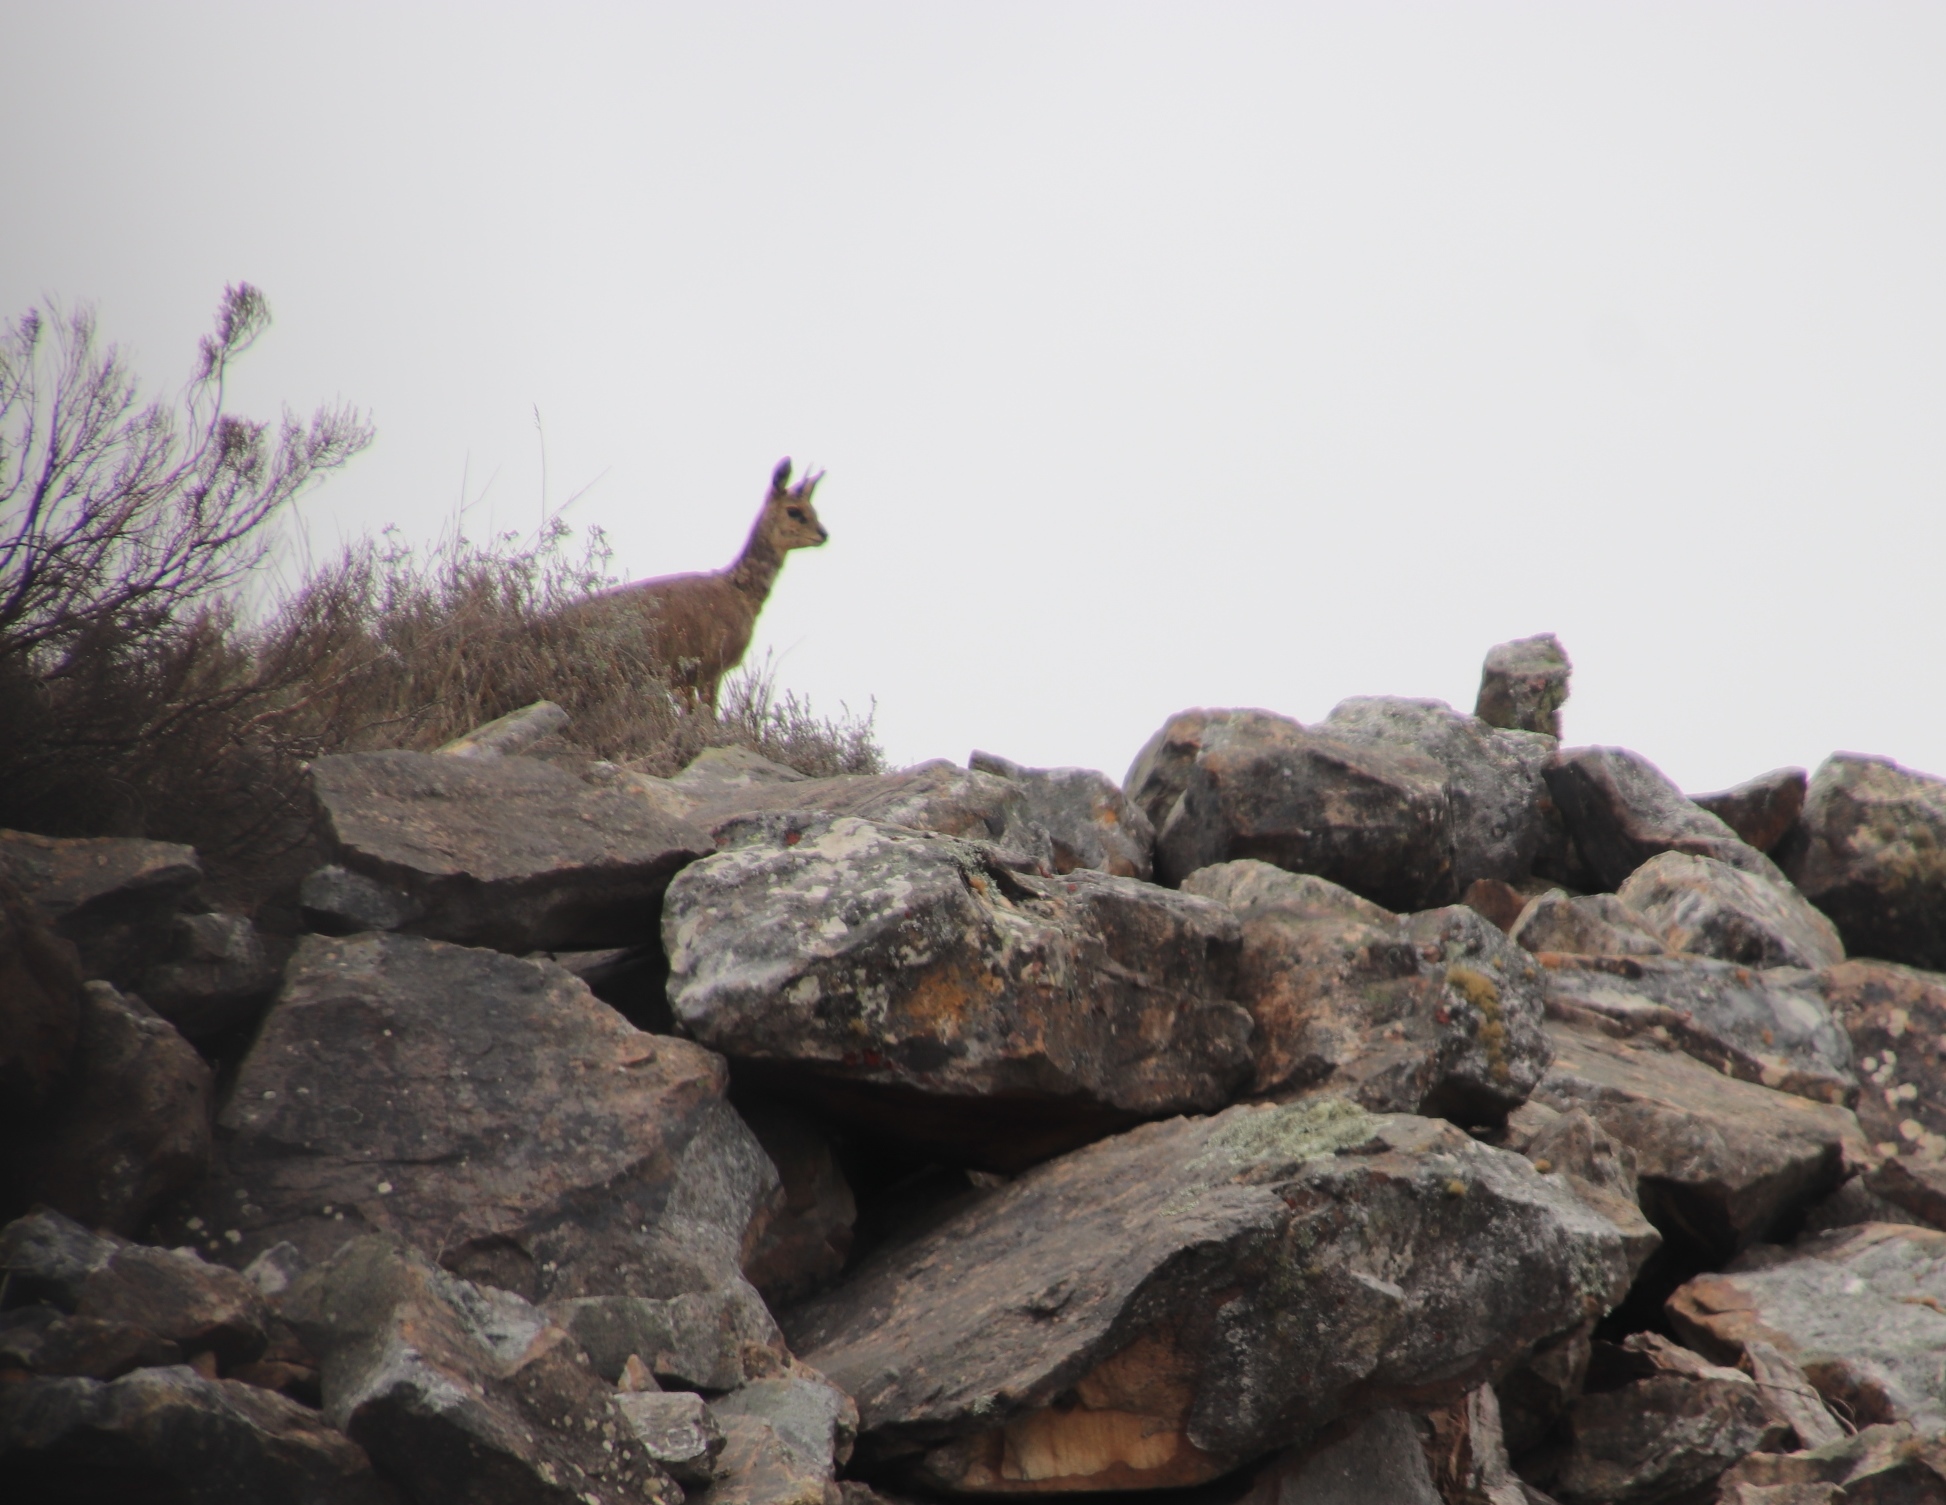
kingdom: Animalia
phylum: Chordata
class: Mammalia
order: Artiodactyla
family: Bovidae
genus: Oreotragus
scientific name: Oreotragus oreotragus
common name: Klipspringer
